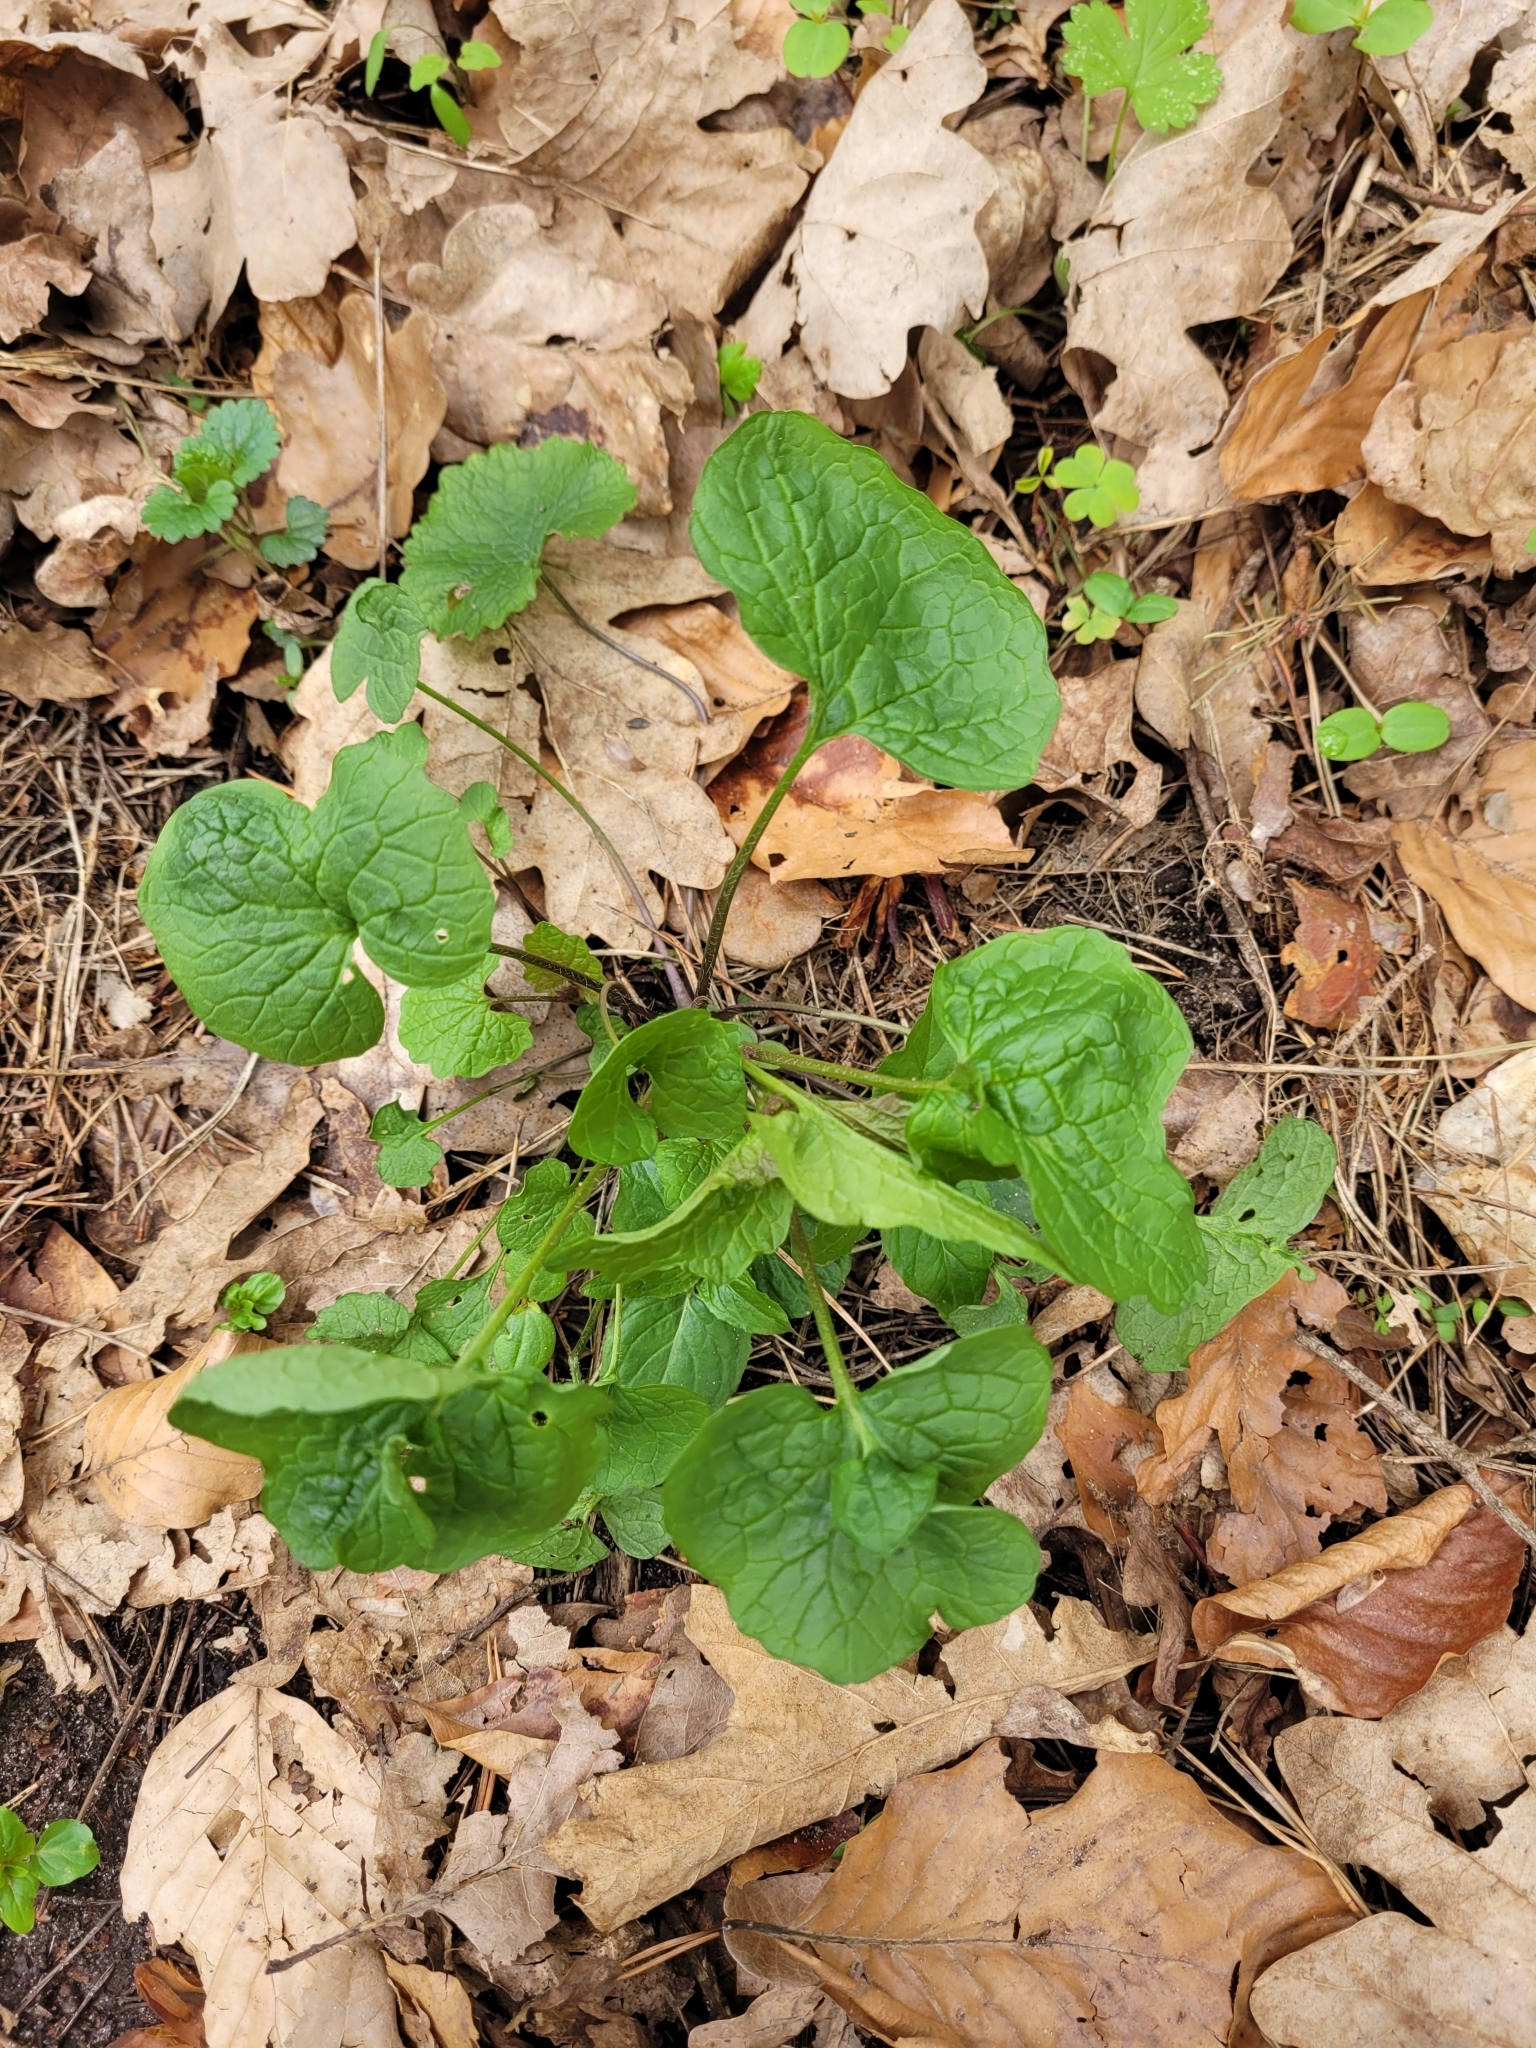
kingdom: Plantae
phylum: Tracheophyta
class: Magnoliopsida
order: Brassicales
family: Brassicaceae
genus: Alliaria
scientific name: Alliaria petiolata
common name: Garlic mustard
